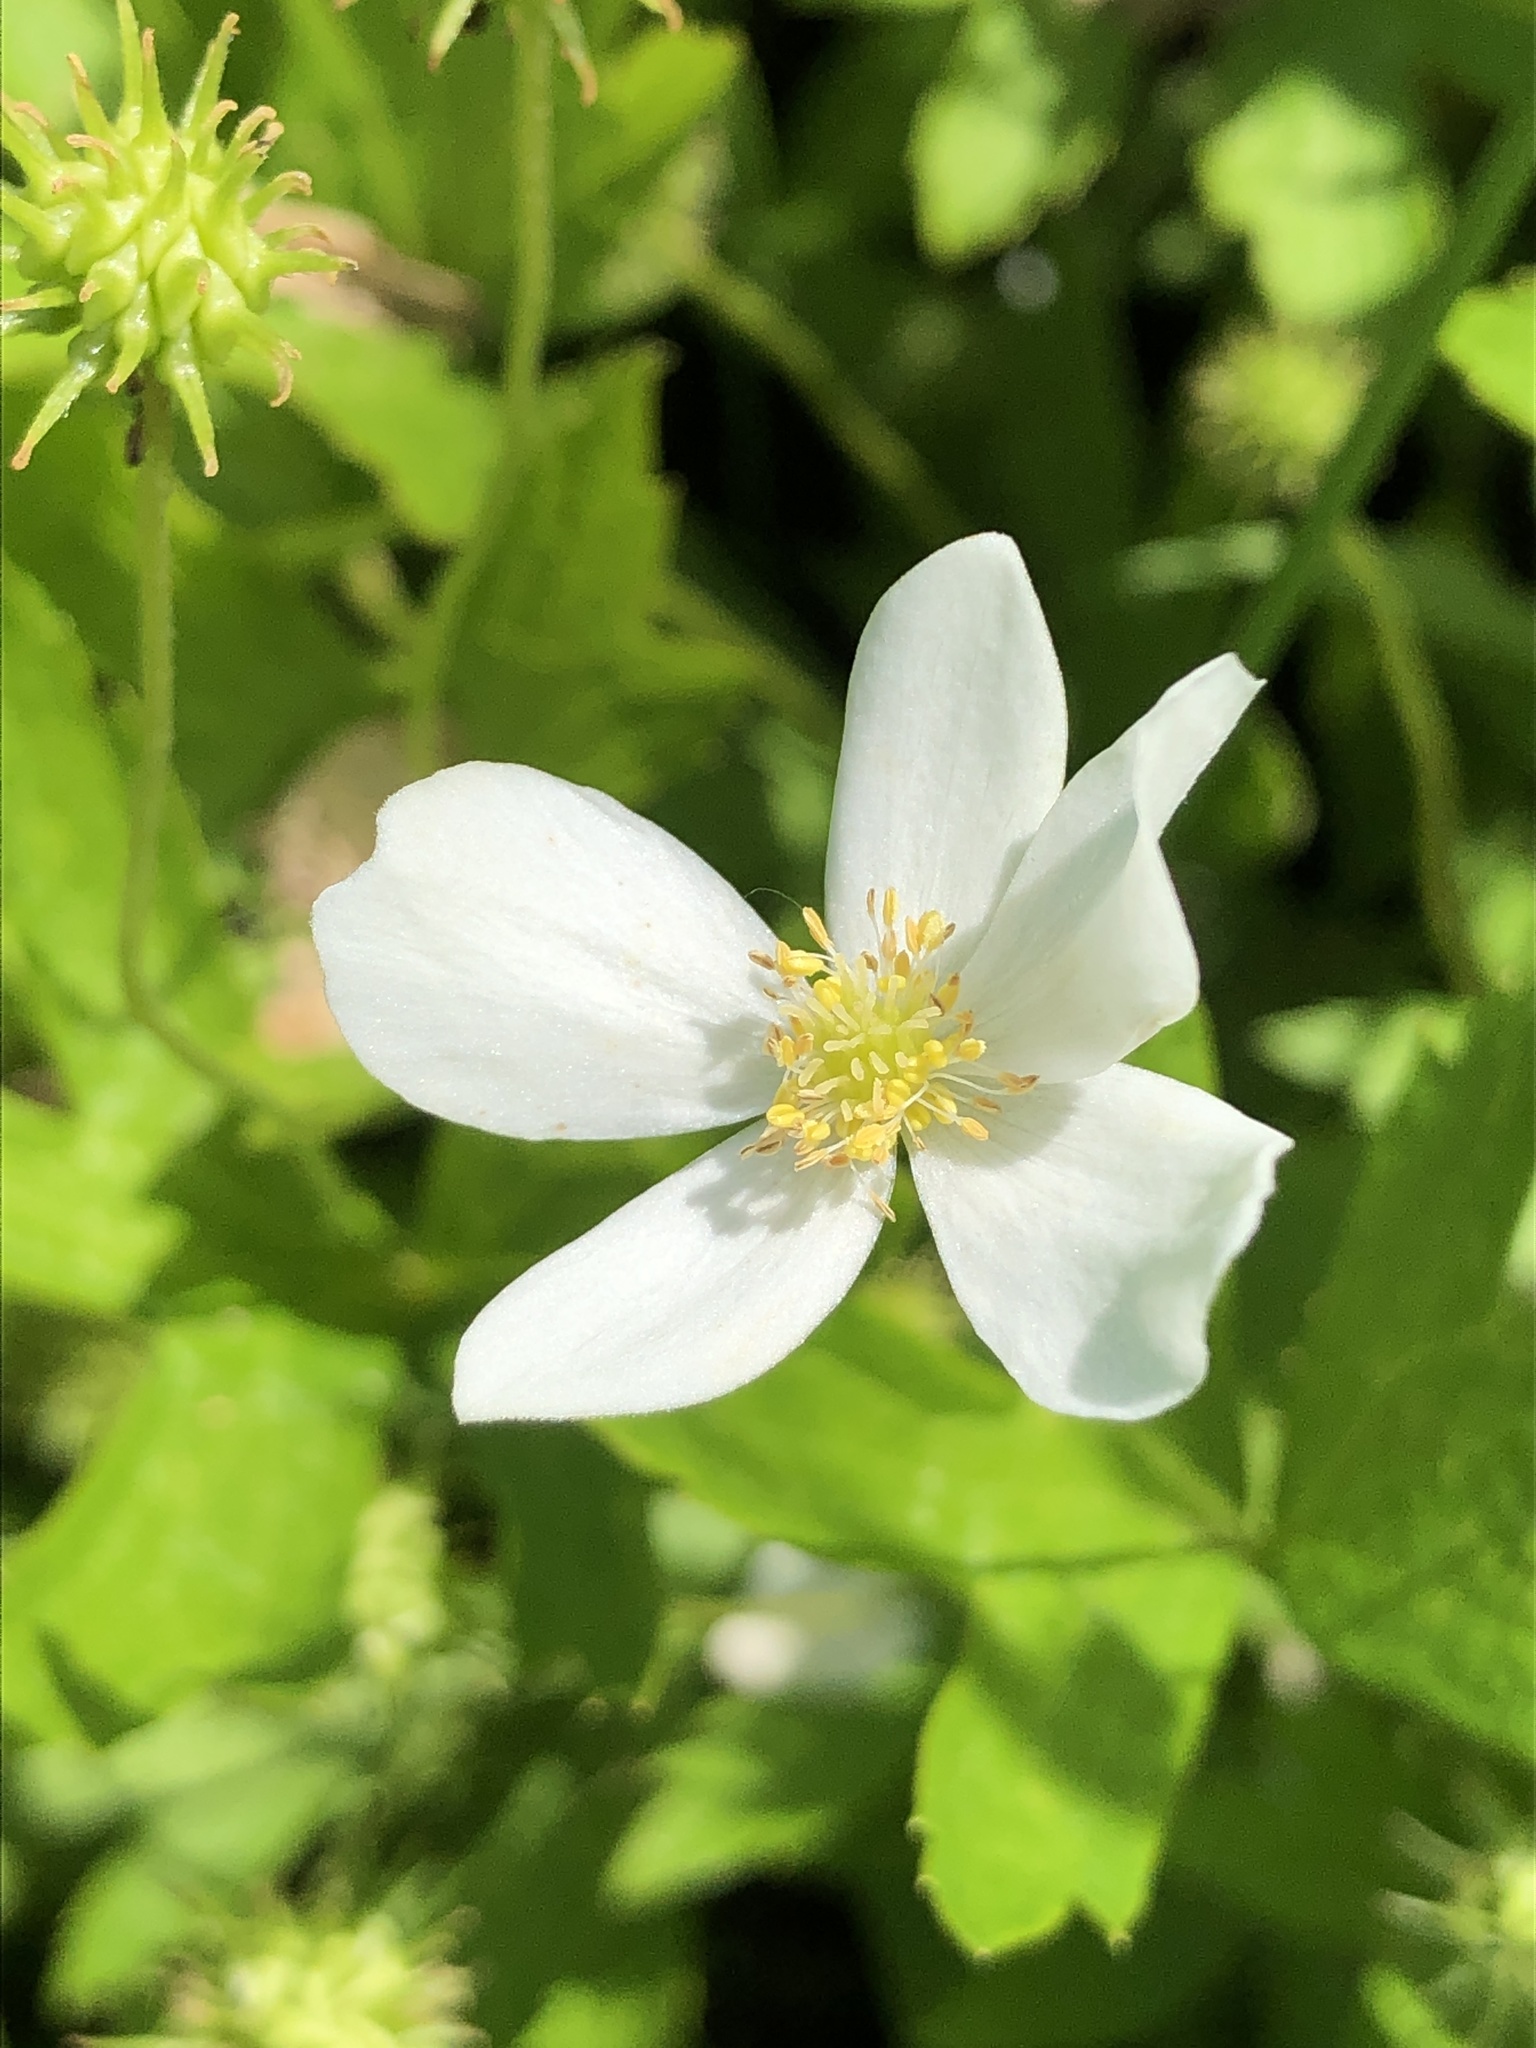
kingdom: Plantae
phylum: Tracheophyta
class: Magnoliopsida
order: Ranunculales
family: Ranunculaceae
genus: Anemonastrum
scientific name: Anemonastrum canadense
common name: Canada anemone
